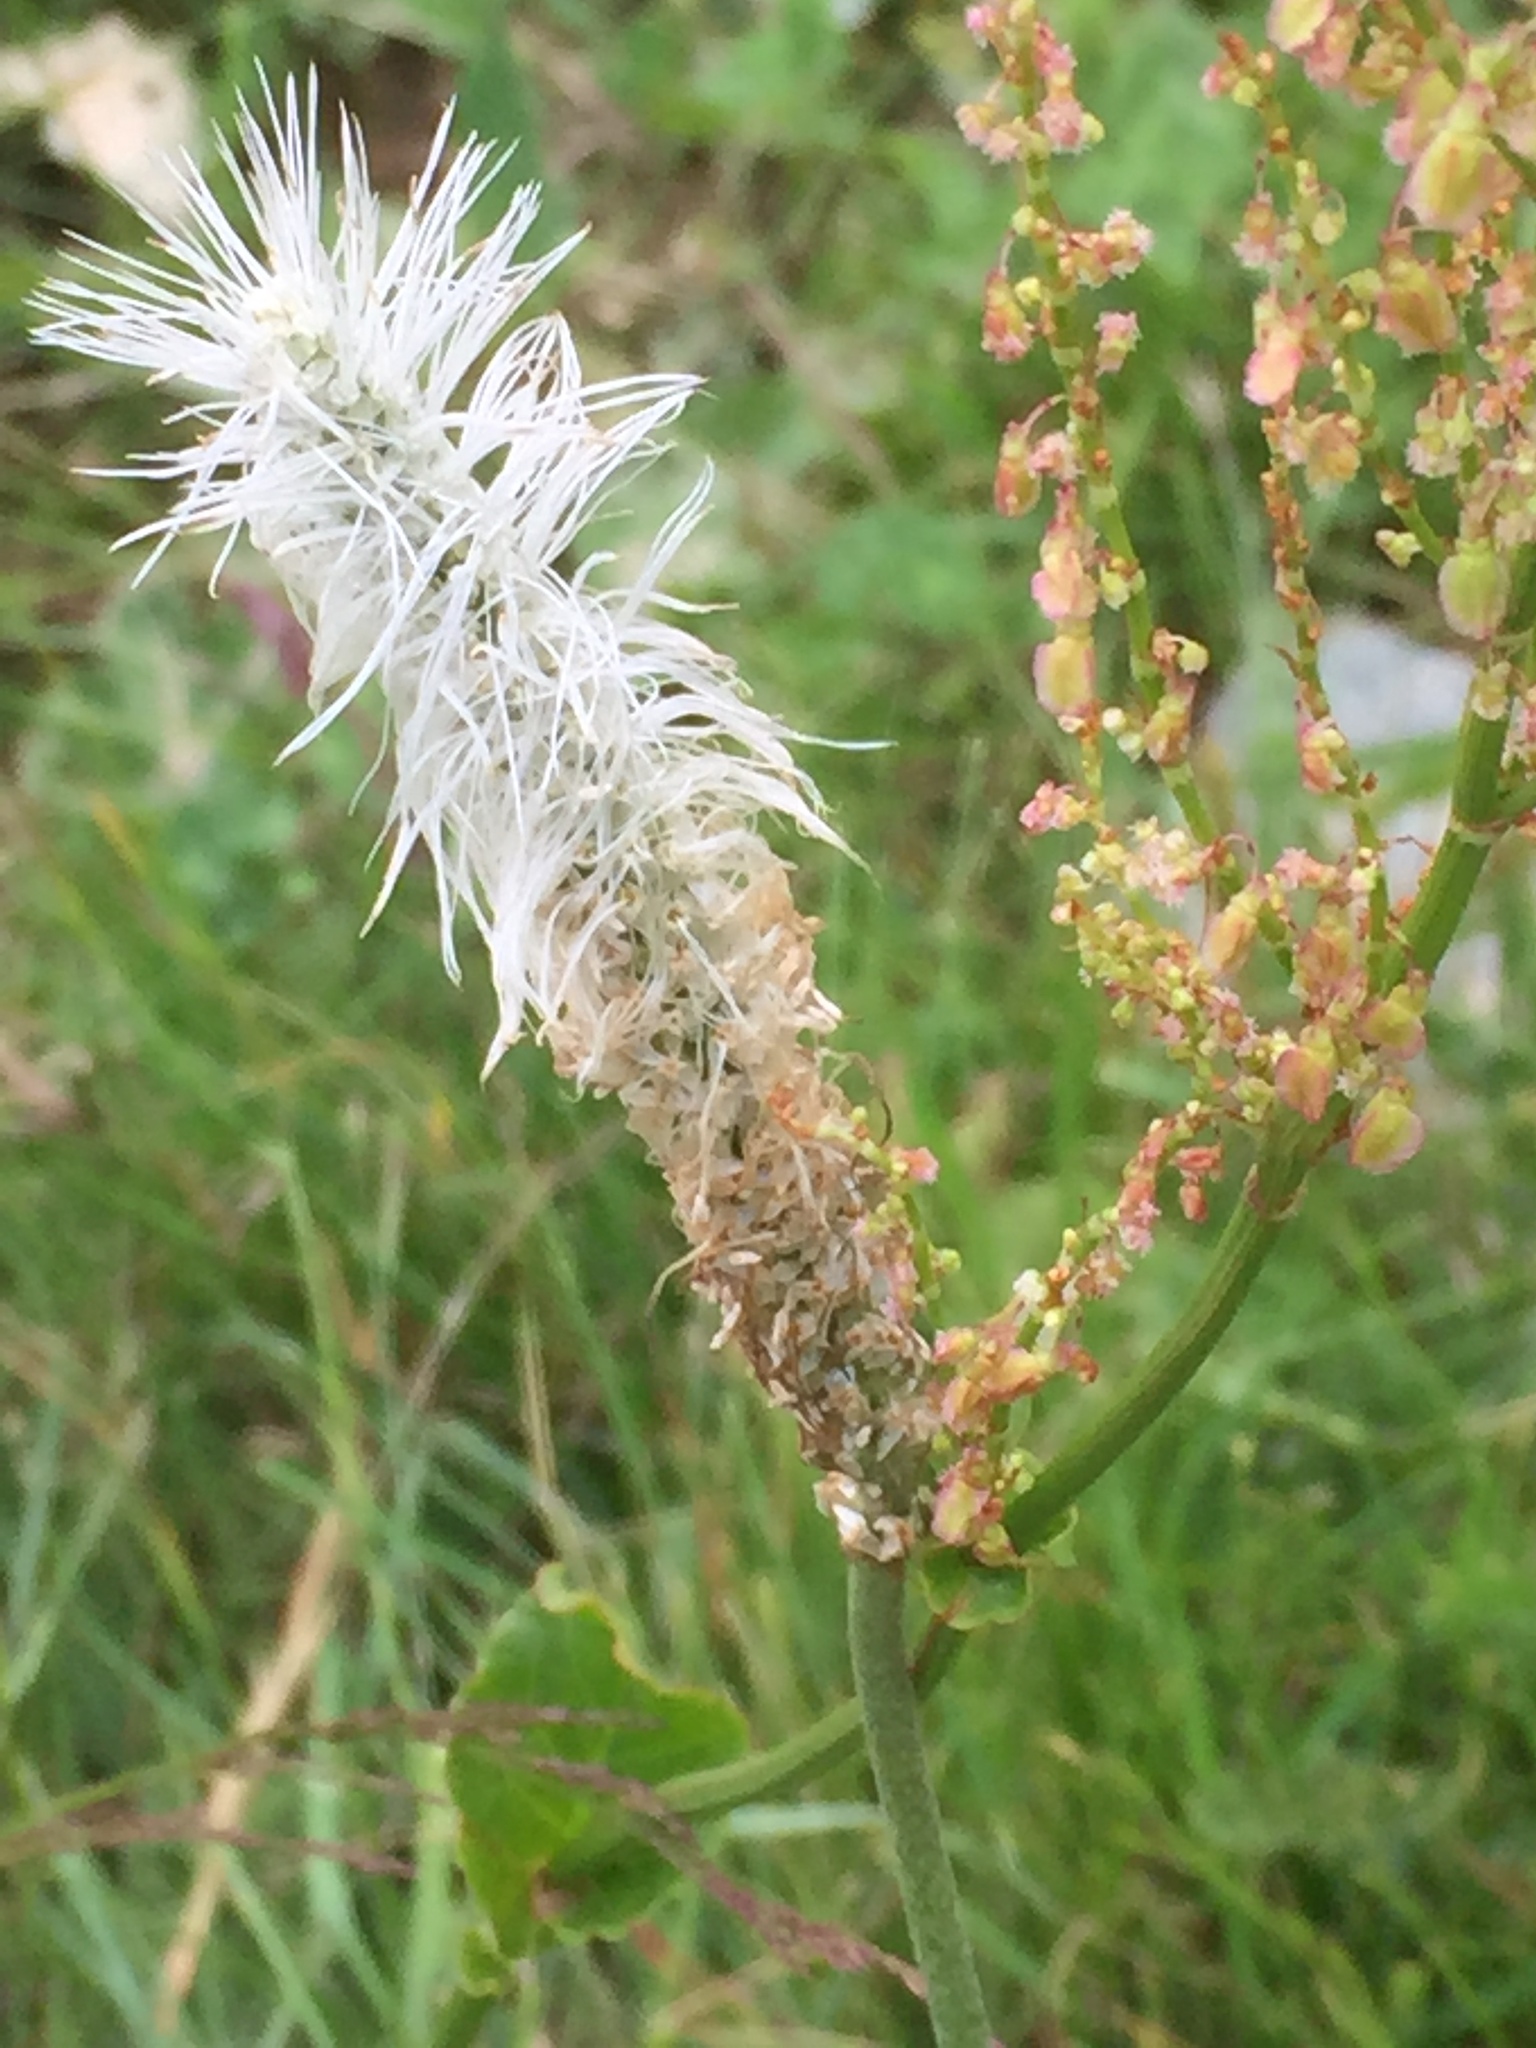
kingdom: Plantae
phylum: Tracheophyta
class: Magnoliopsida
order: Lamiales
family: Plantaginaceae
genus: Plantago
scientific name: Plantago media
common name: Hoary plantain
